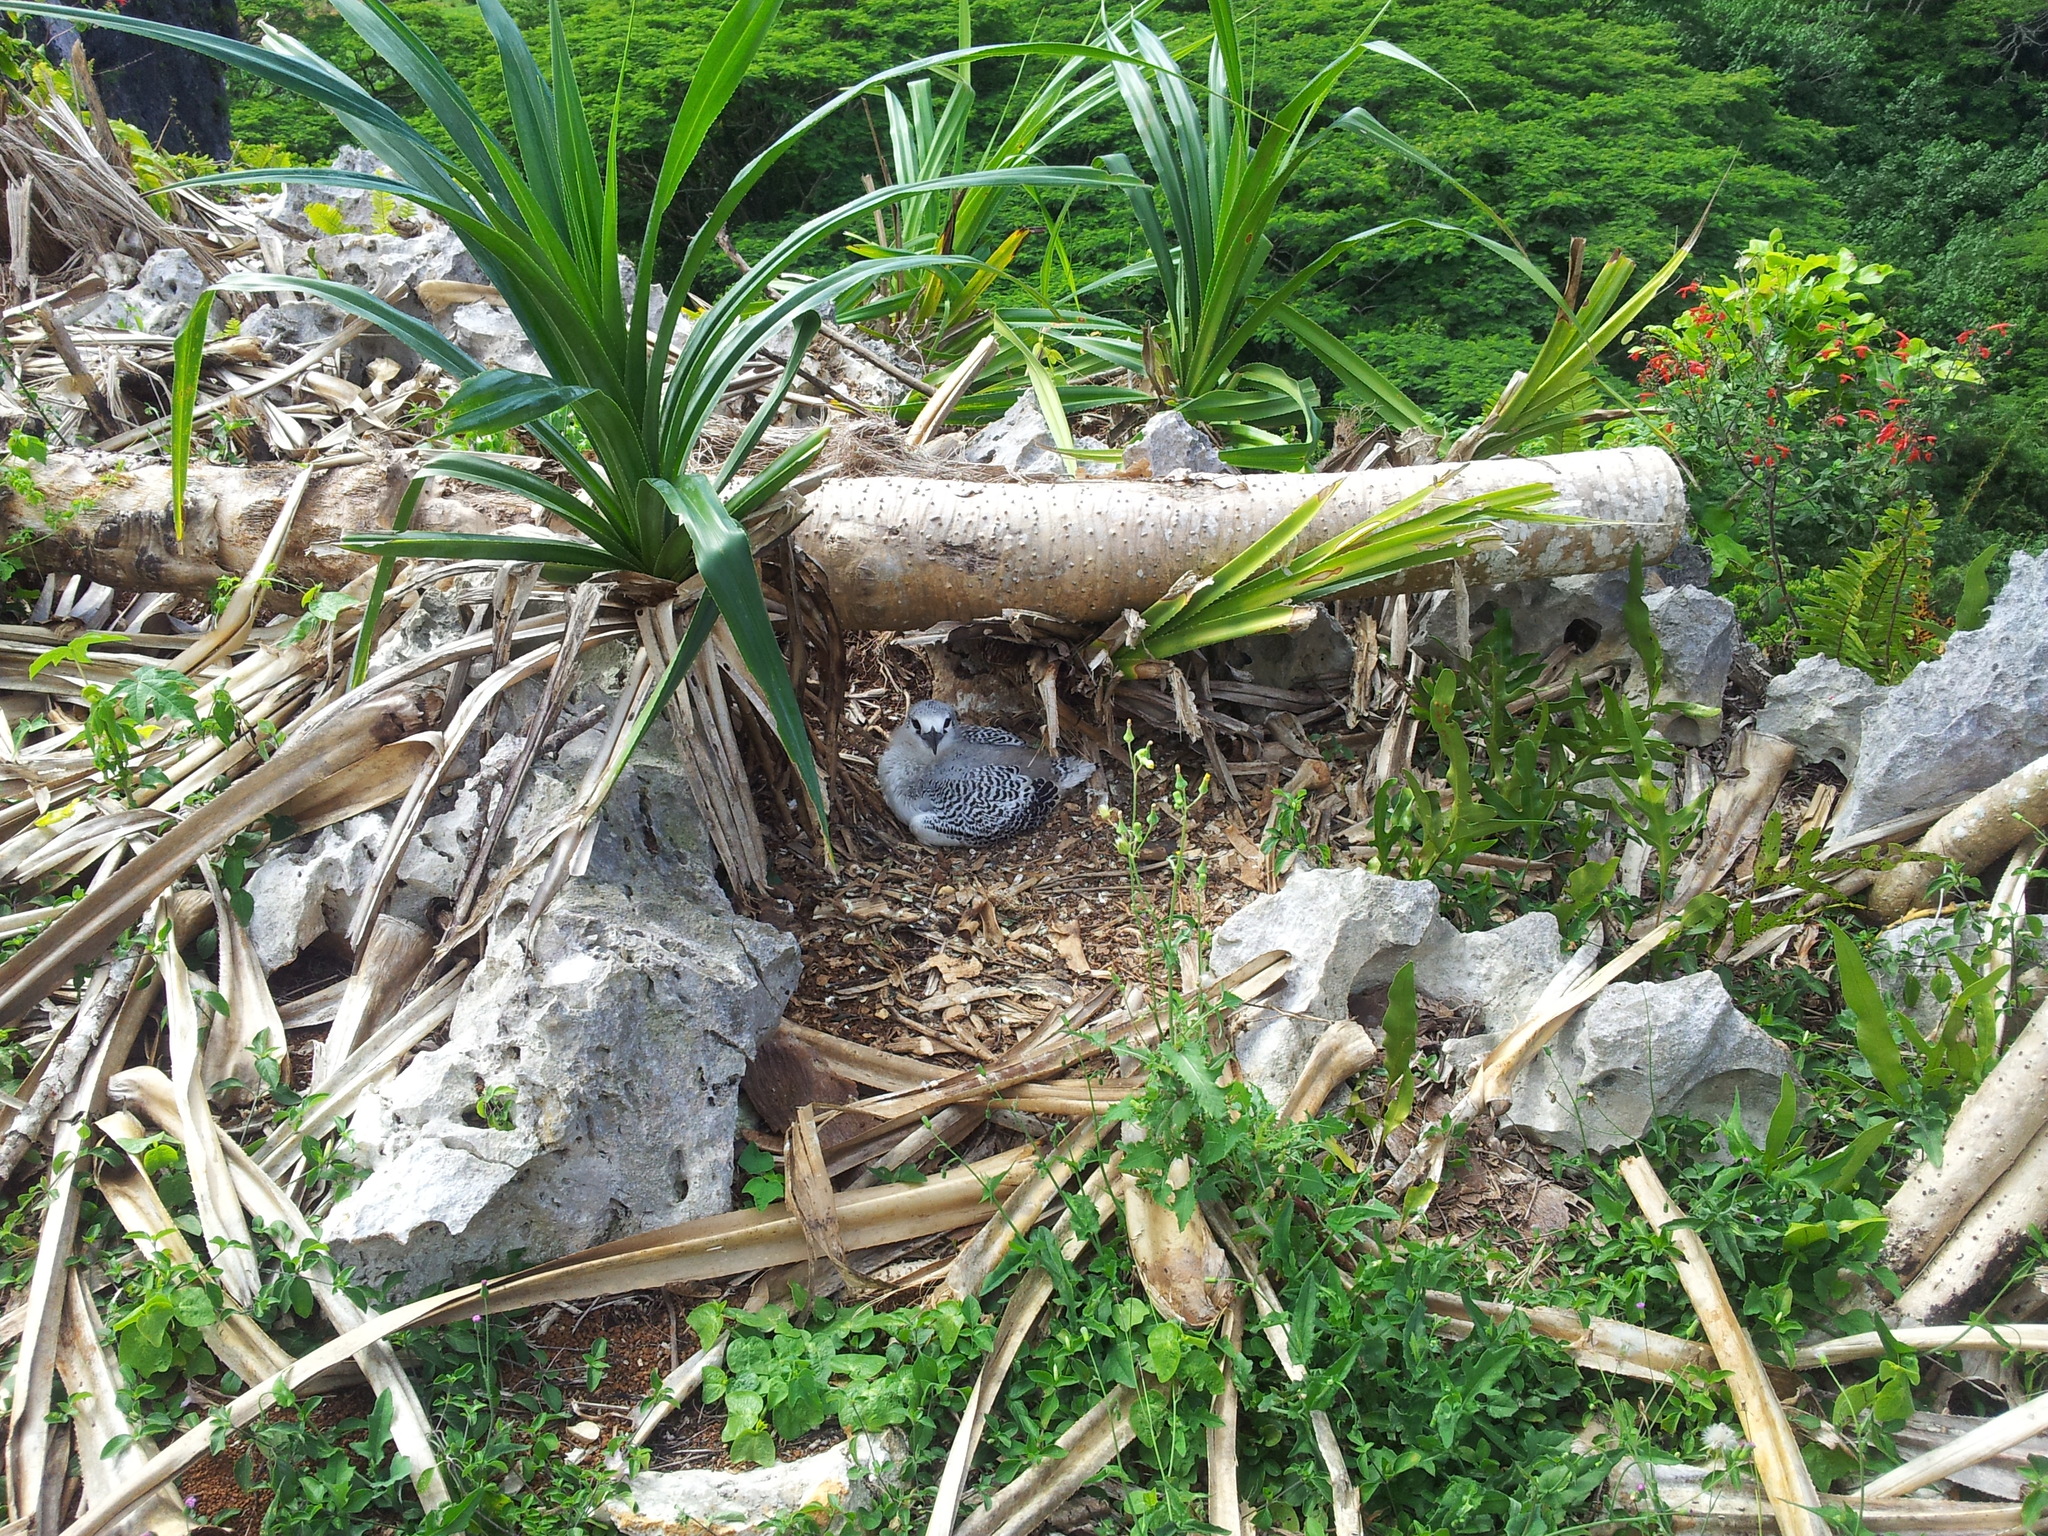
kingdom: Animalia
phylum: Chordata
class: Aves
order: Phaethontiformes
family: Phaethontidae
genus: Phaethon
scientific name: Phaethon rubricauda
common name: Red-tailed tropicbird
